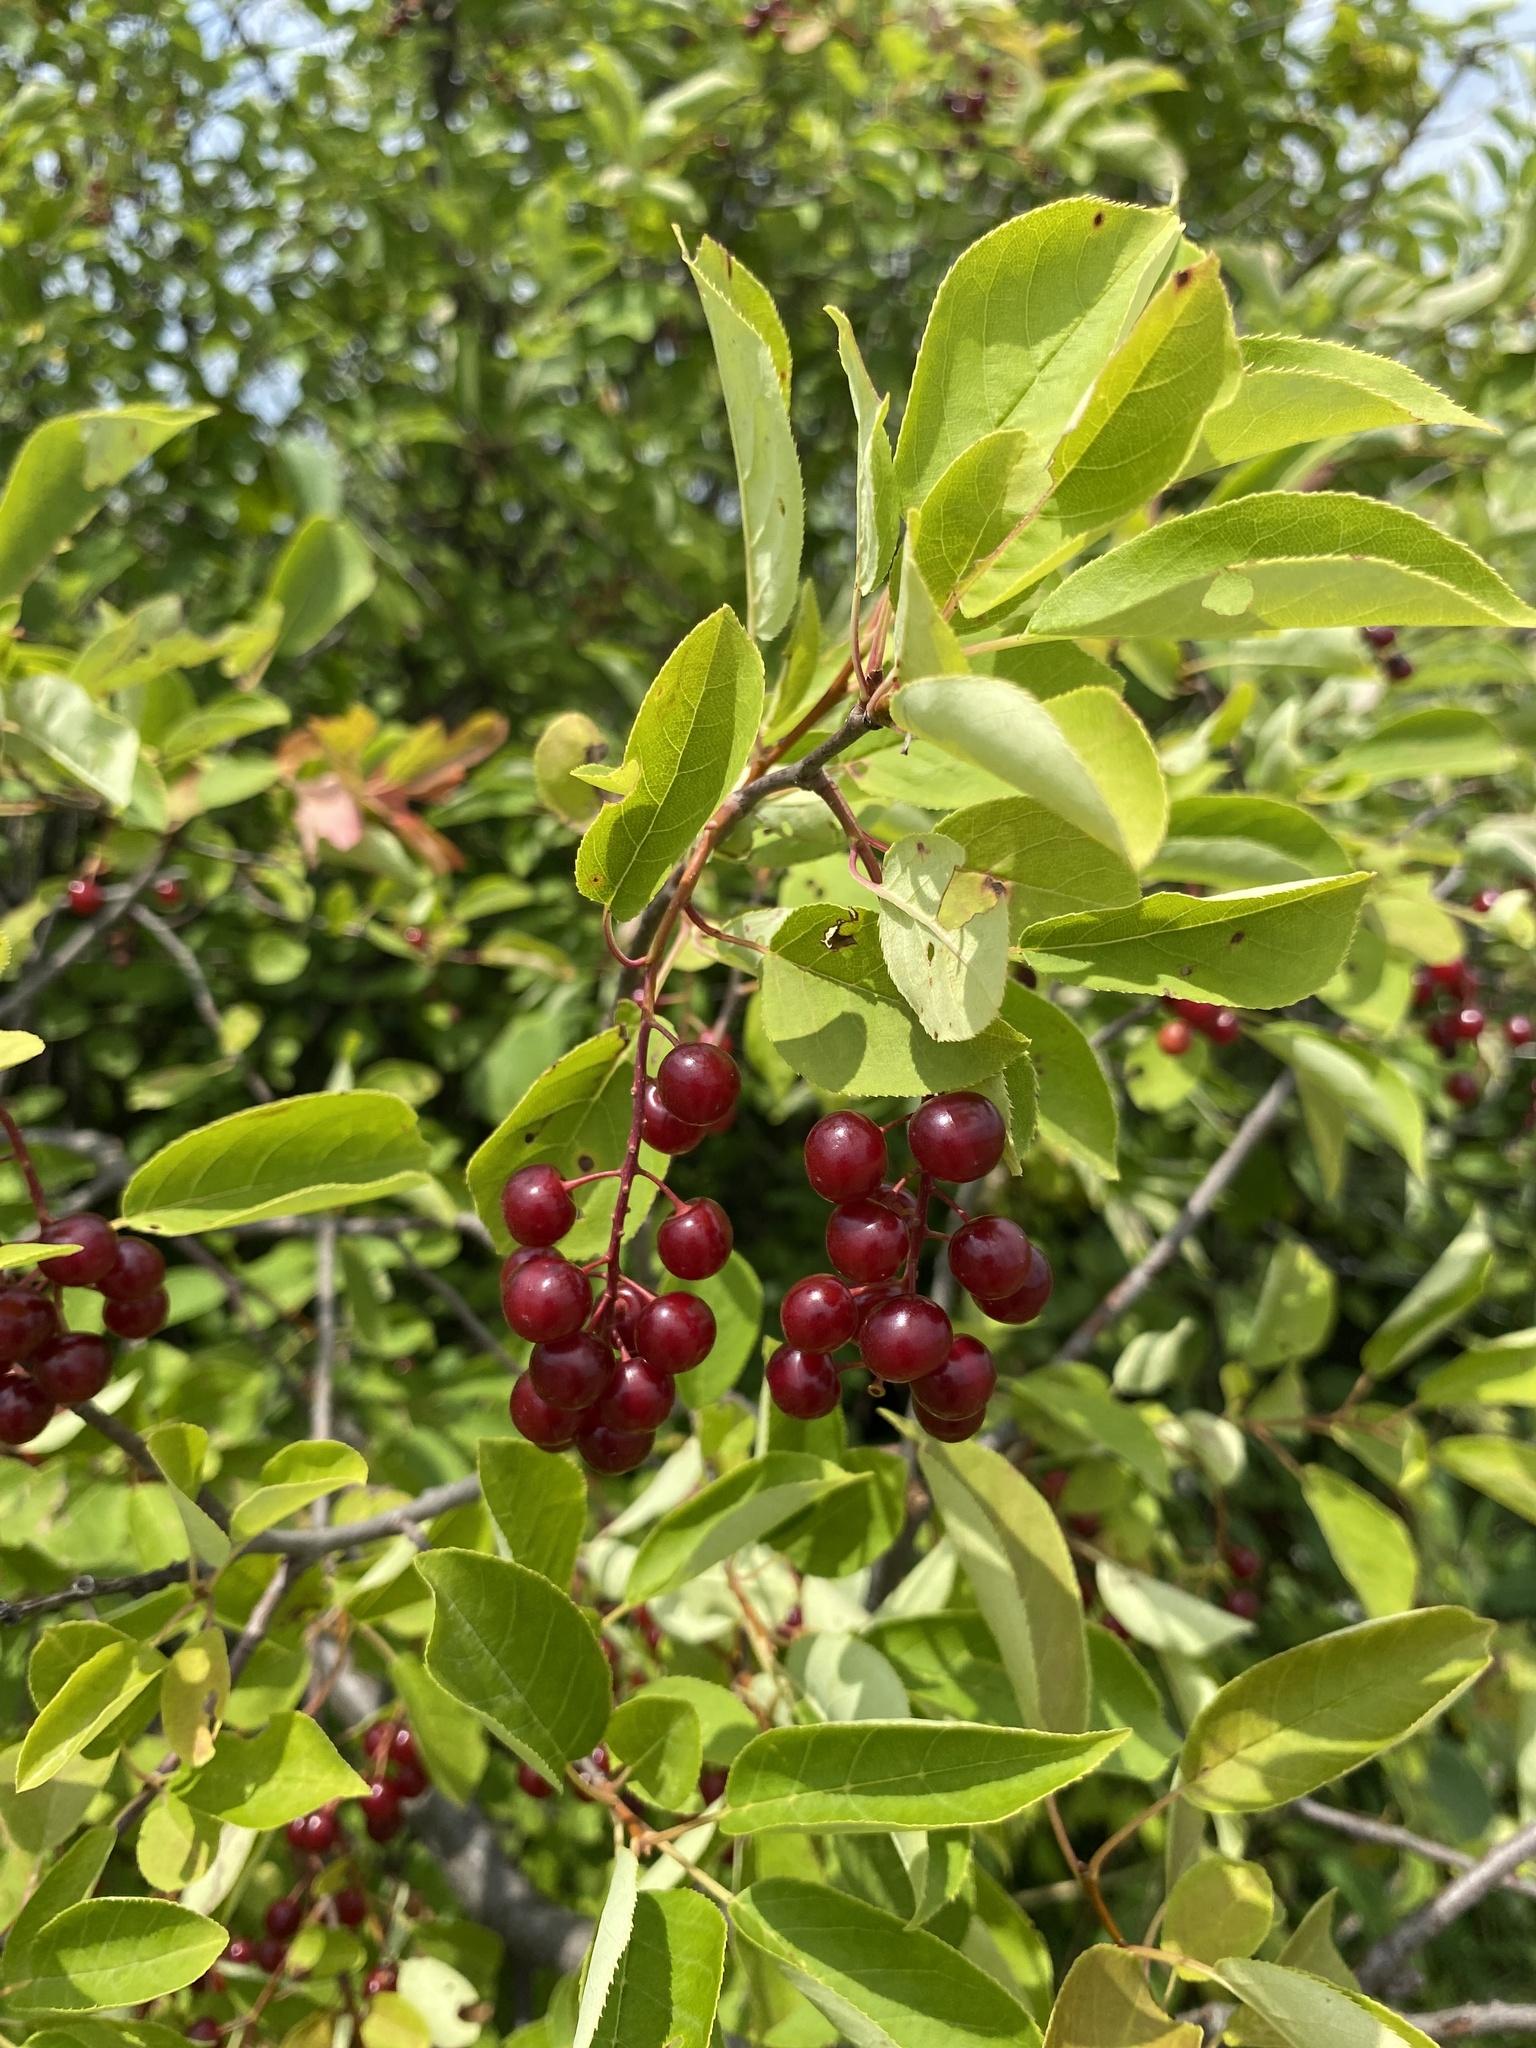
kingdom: Plantae
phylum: Tracheophyta
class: Magnoliopsida
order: Rosales
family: Rosaceae
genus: Prunus
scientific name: Prunus virginiana
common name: Chokecherry
